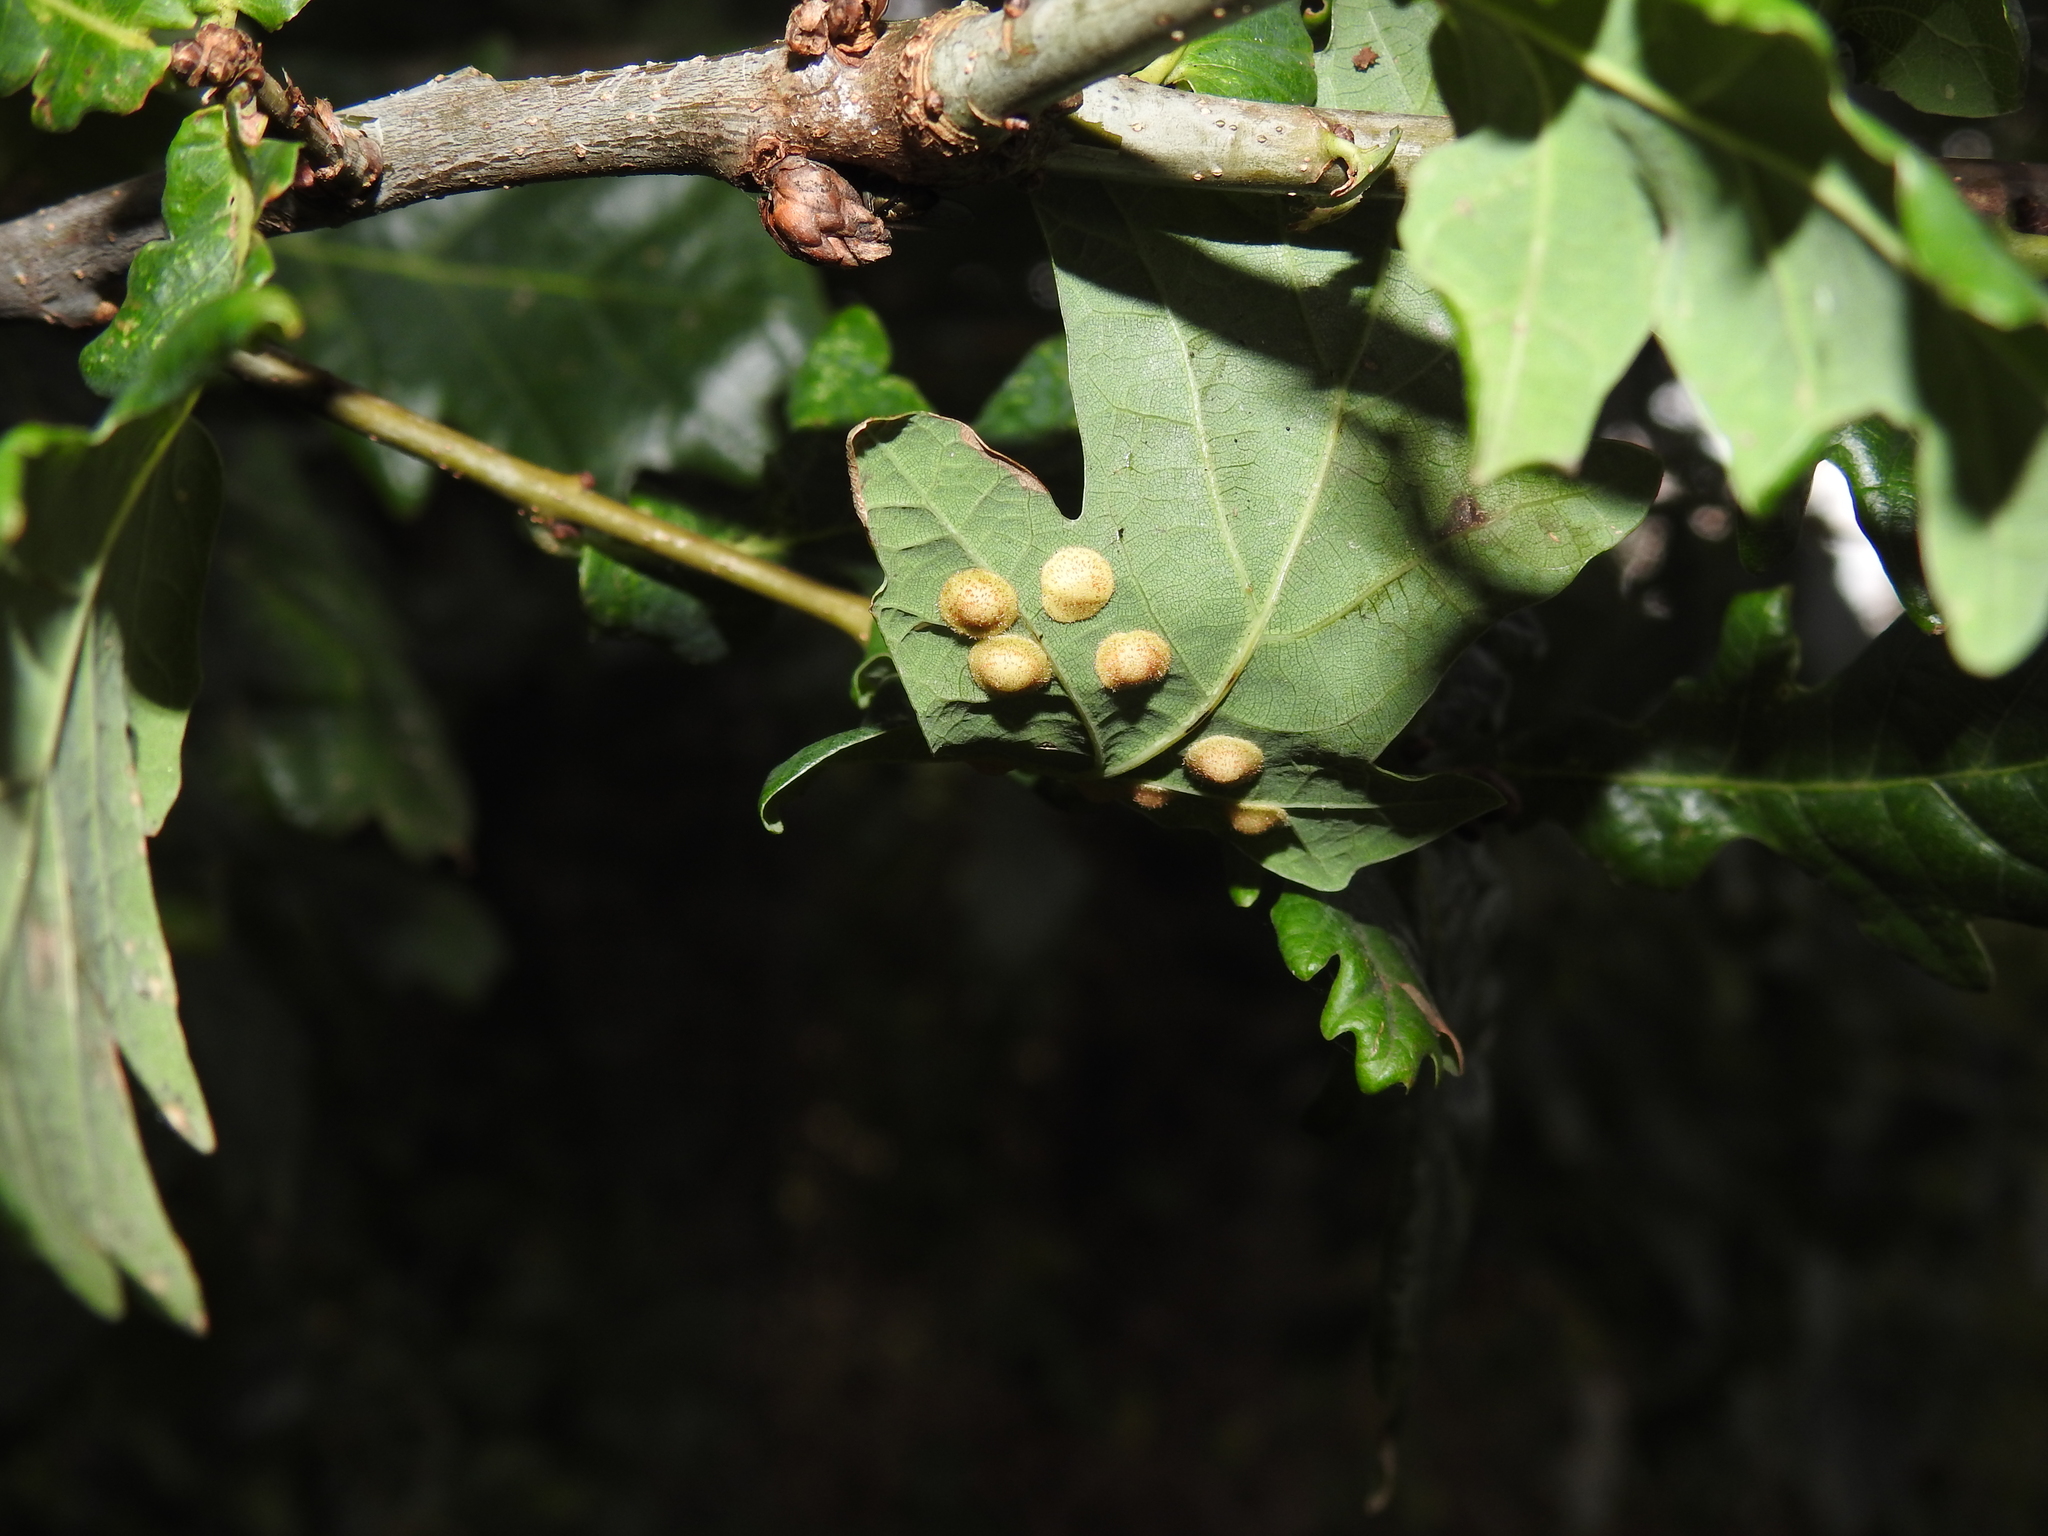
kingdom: Animalia
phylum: Arthropoda
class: Insecta
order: Hymenoptera
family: Cynipidae
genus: Neuroterus
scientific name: Neuroterus quercusbaccarum
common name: Common spangle gall
